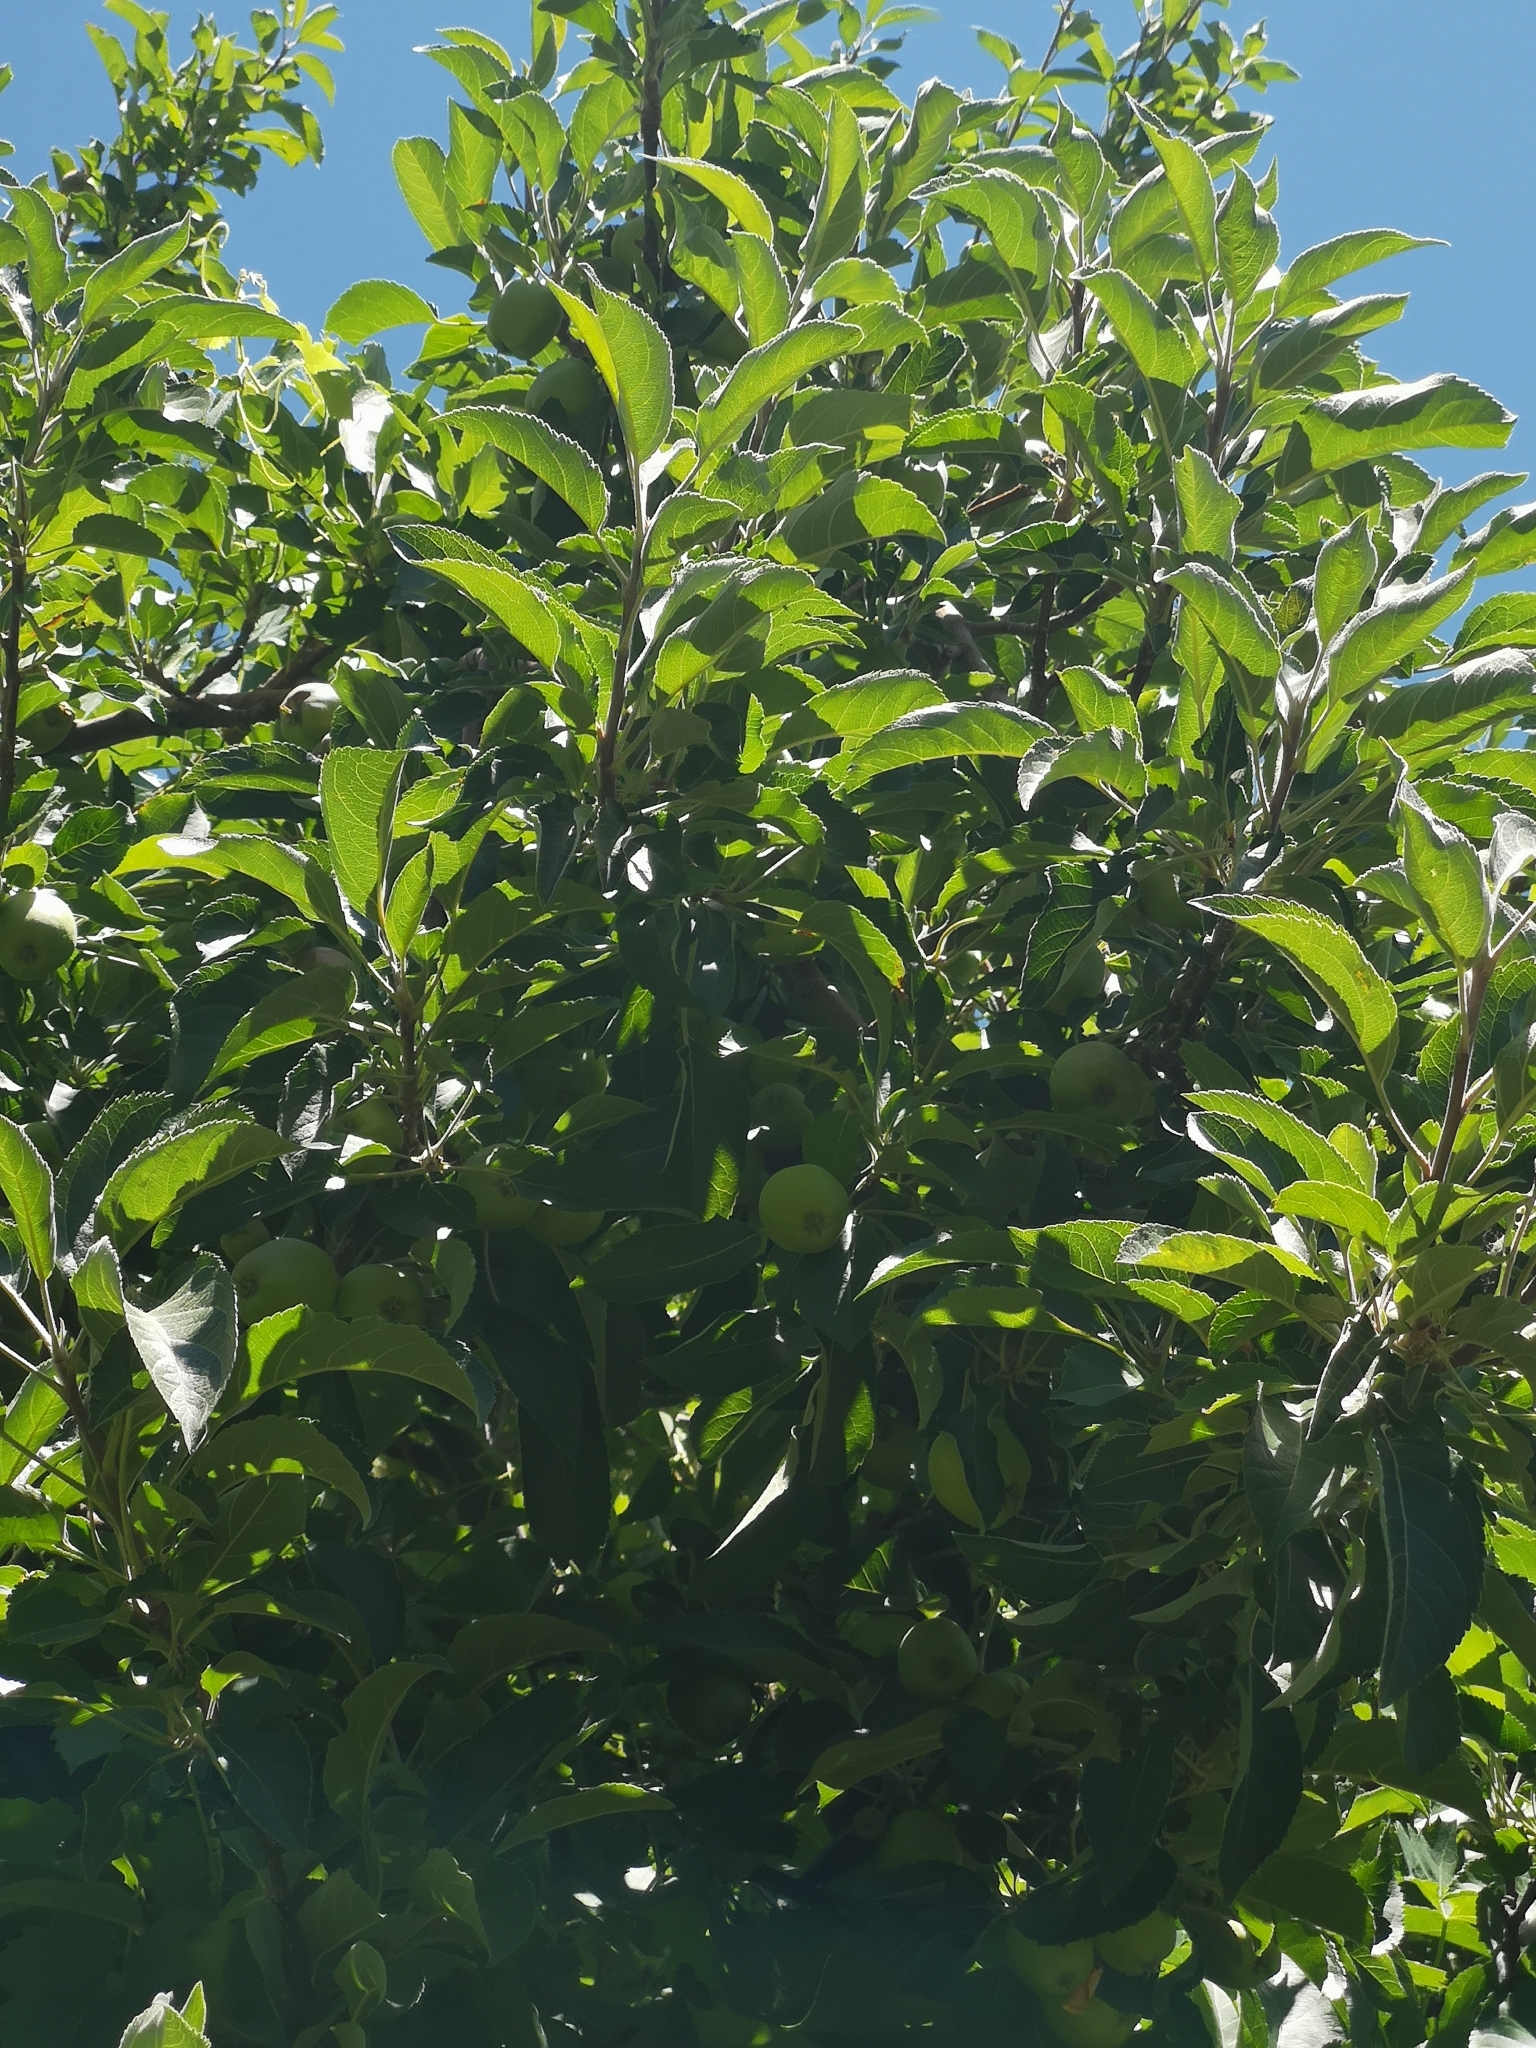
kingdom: Plantae
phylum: Tracheophyta
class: Magnoliopsida
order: Rosales
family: Rosaceae
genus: Malus
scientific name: Malus domestica
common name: Apple
